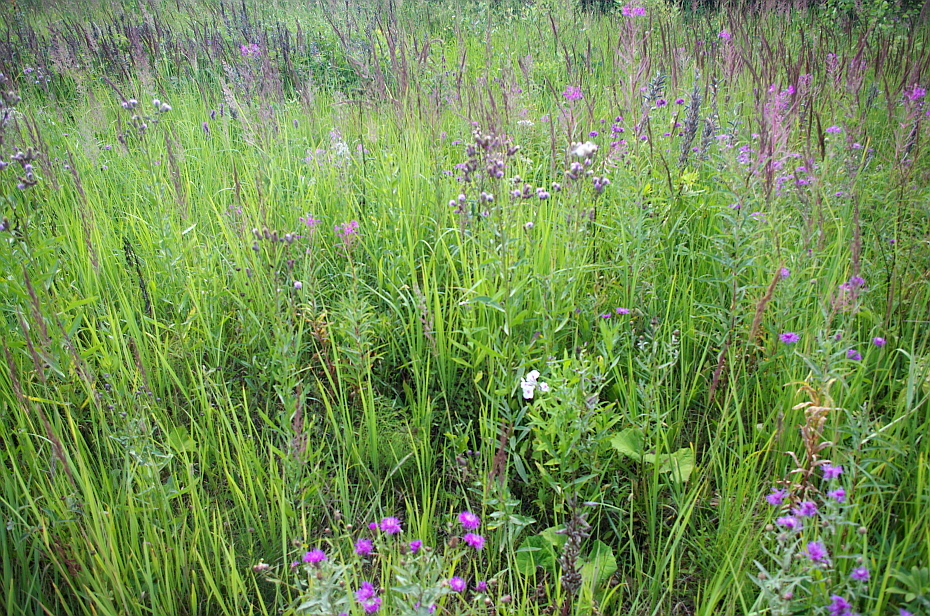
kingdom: Plantae
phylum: Tracheophyta
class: Magnoliopsida
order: Asterales
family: Asteraceae
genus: Cirsium
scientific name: Cirsium arvense
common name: Creeping thistle
